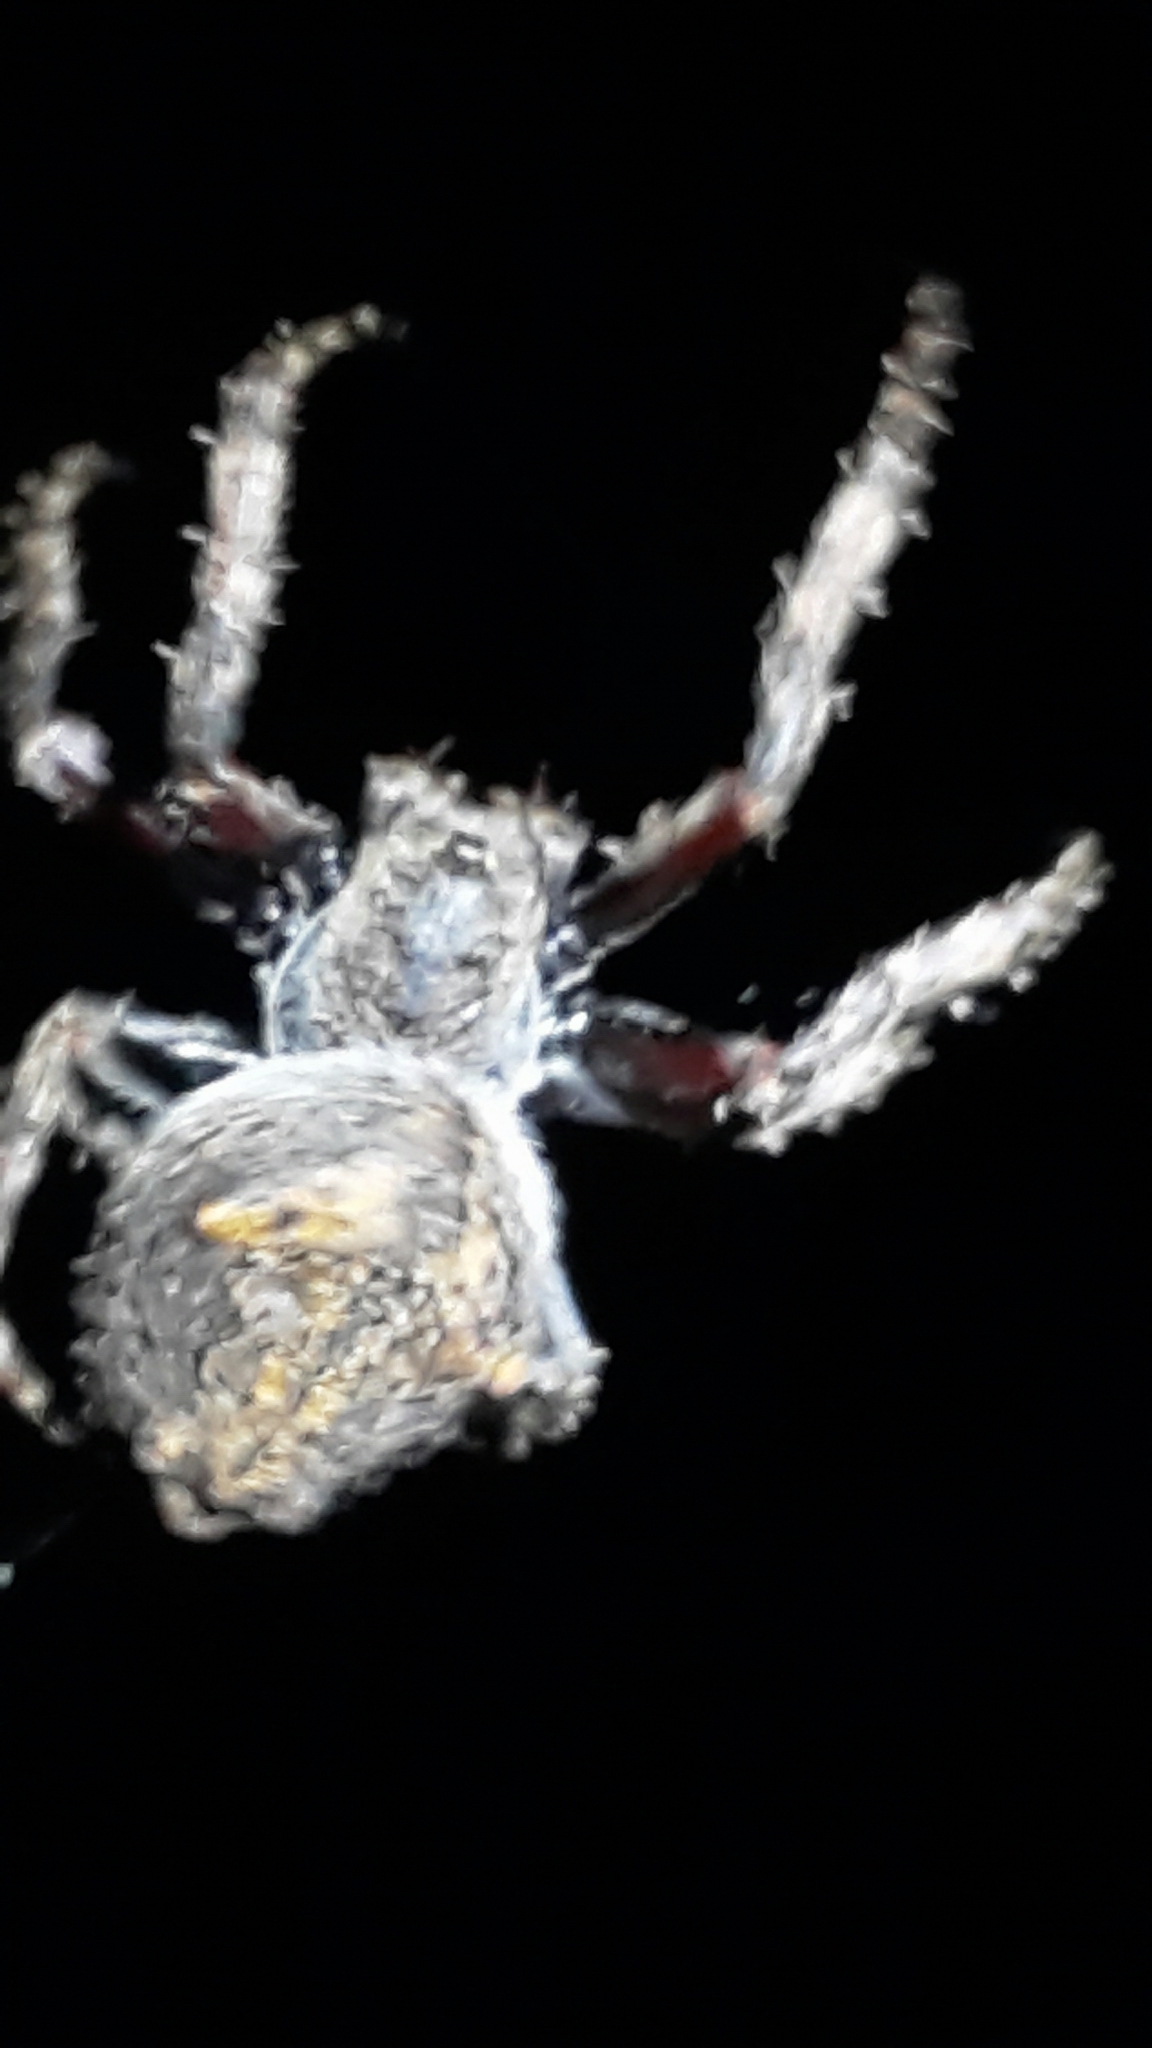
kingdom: Animalia
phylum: Arthropoda
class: Arachnida
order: Araneae
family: Araneidae
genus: Eriophora
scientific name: Eriophora pustulosa
